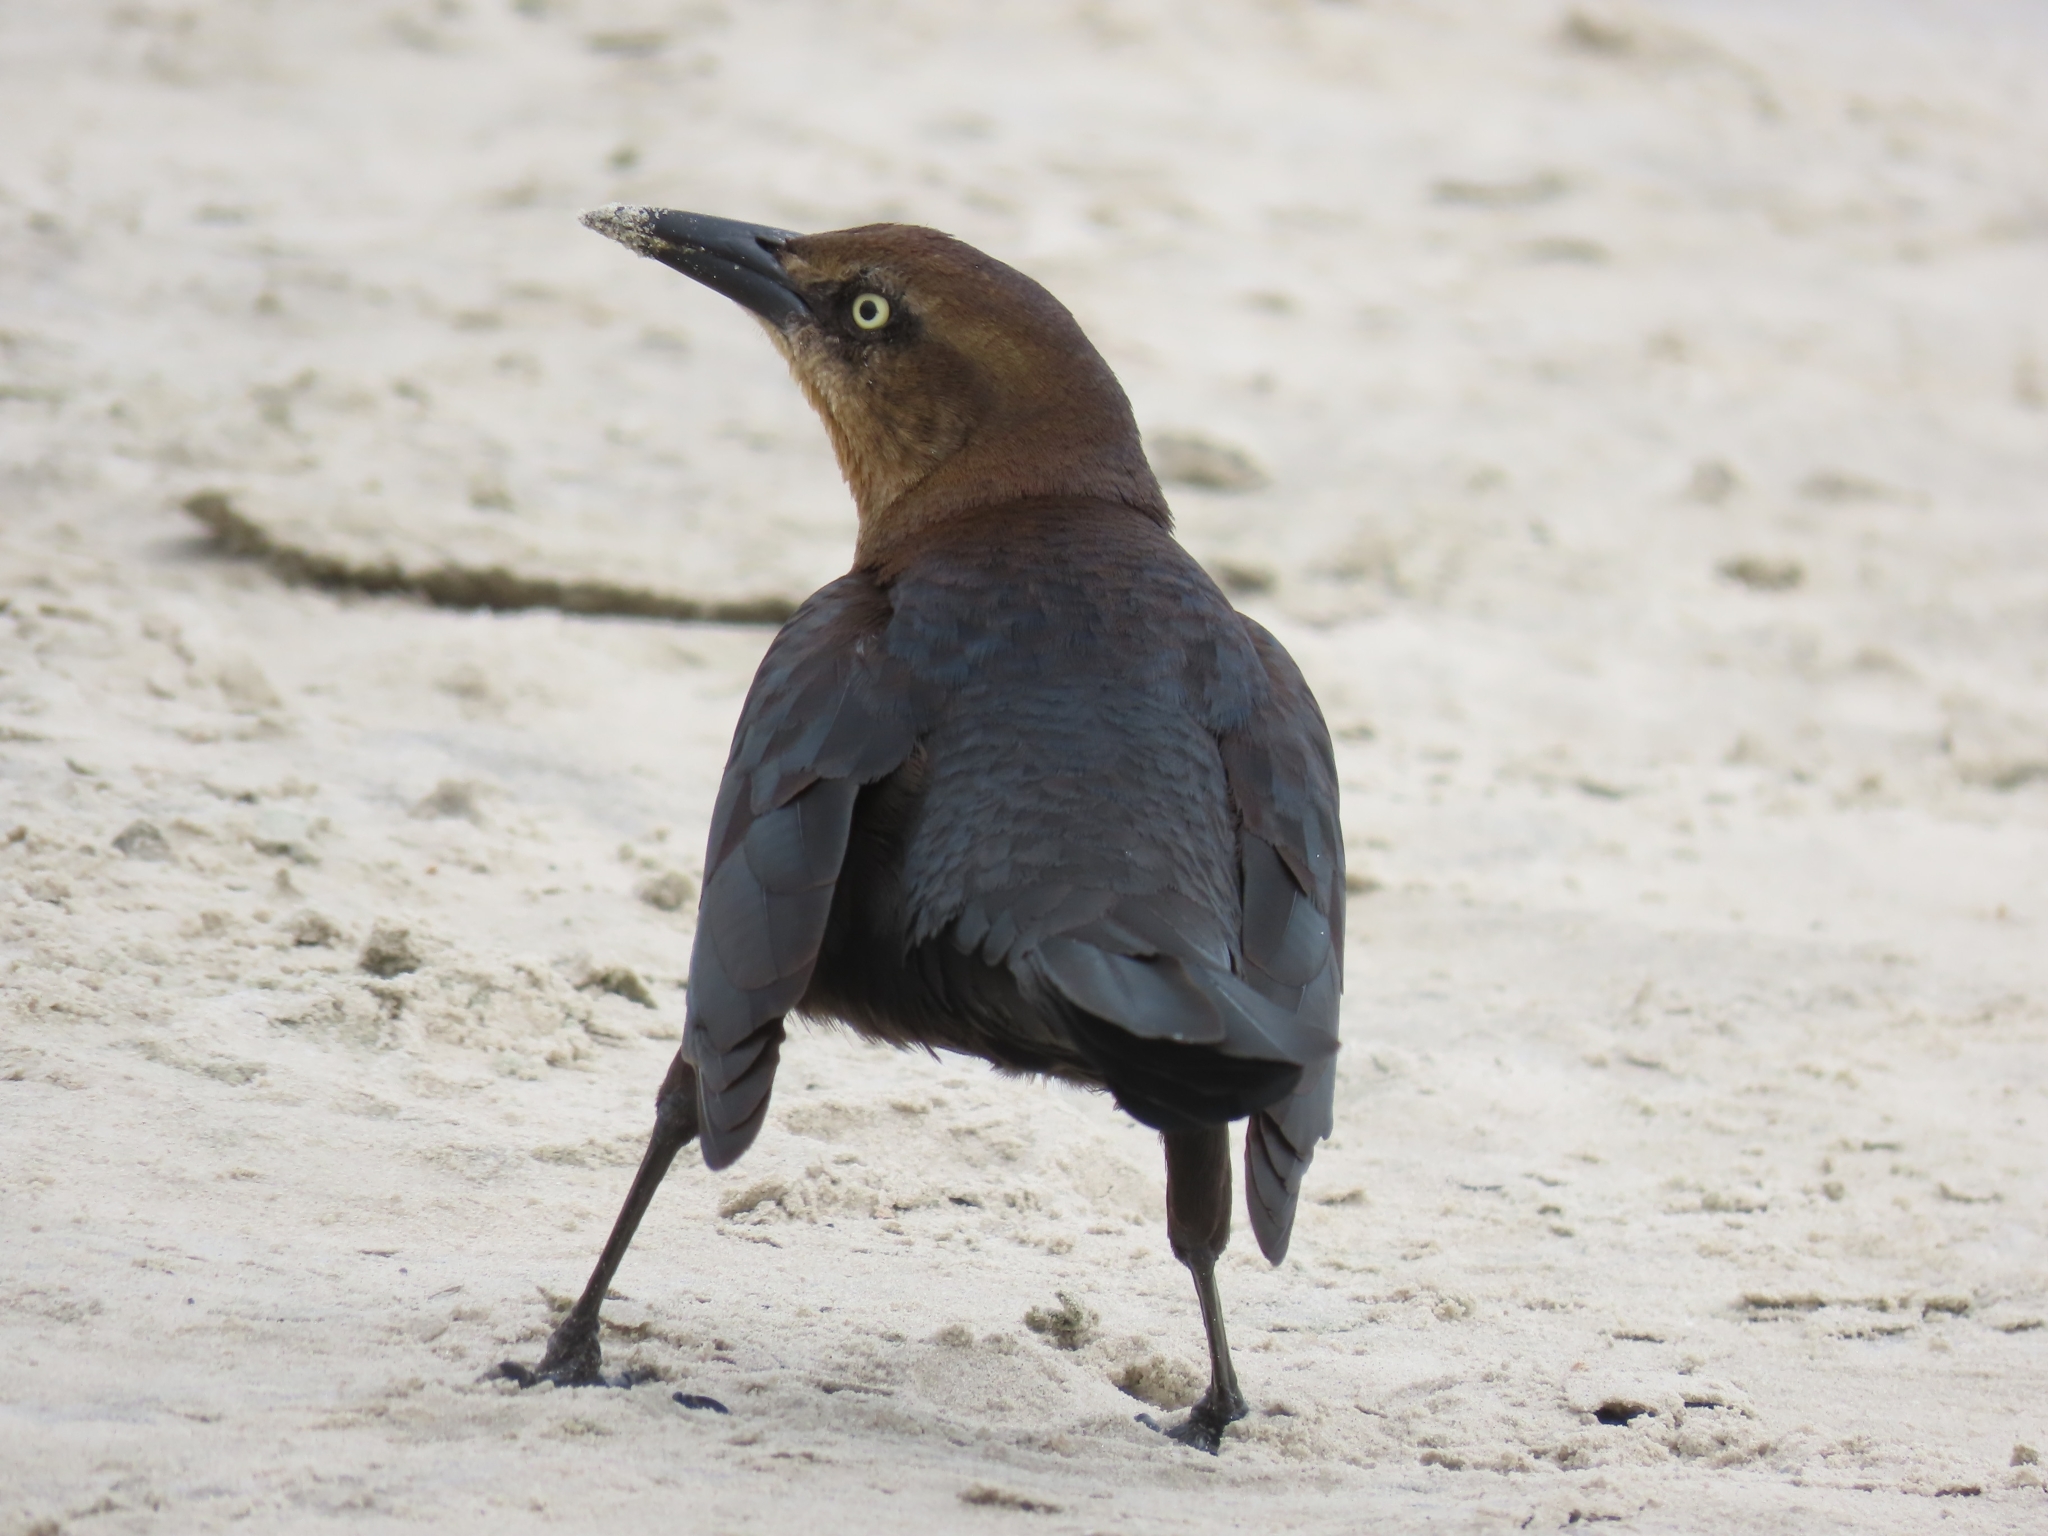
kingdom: Animalia
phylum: Chordata
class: Aves
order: Passeriformes
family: Icteridae
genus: Quiscalus
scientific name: Quiscalus mexicanus
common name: Great-tailed grackle
